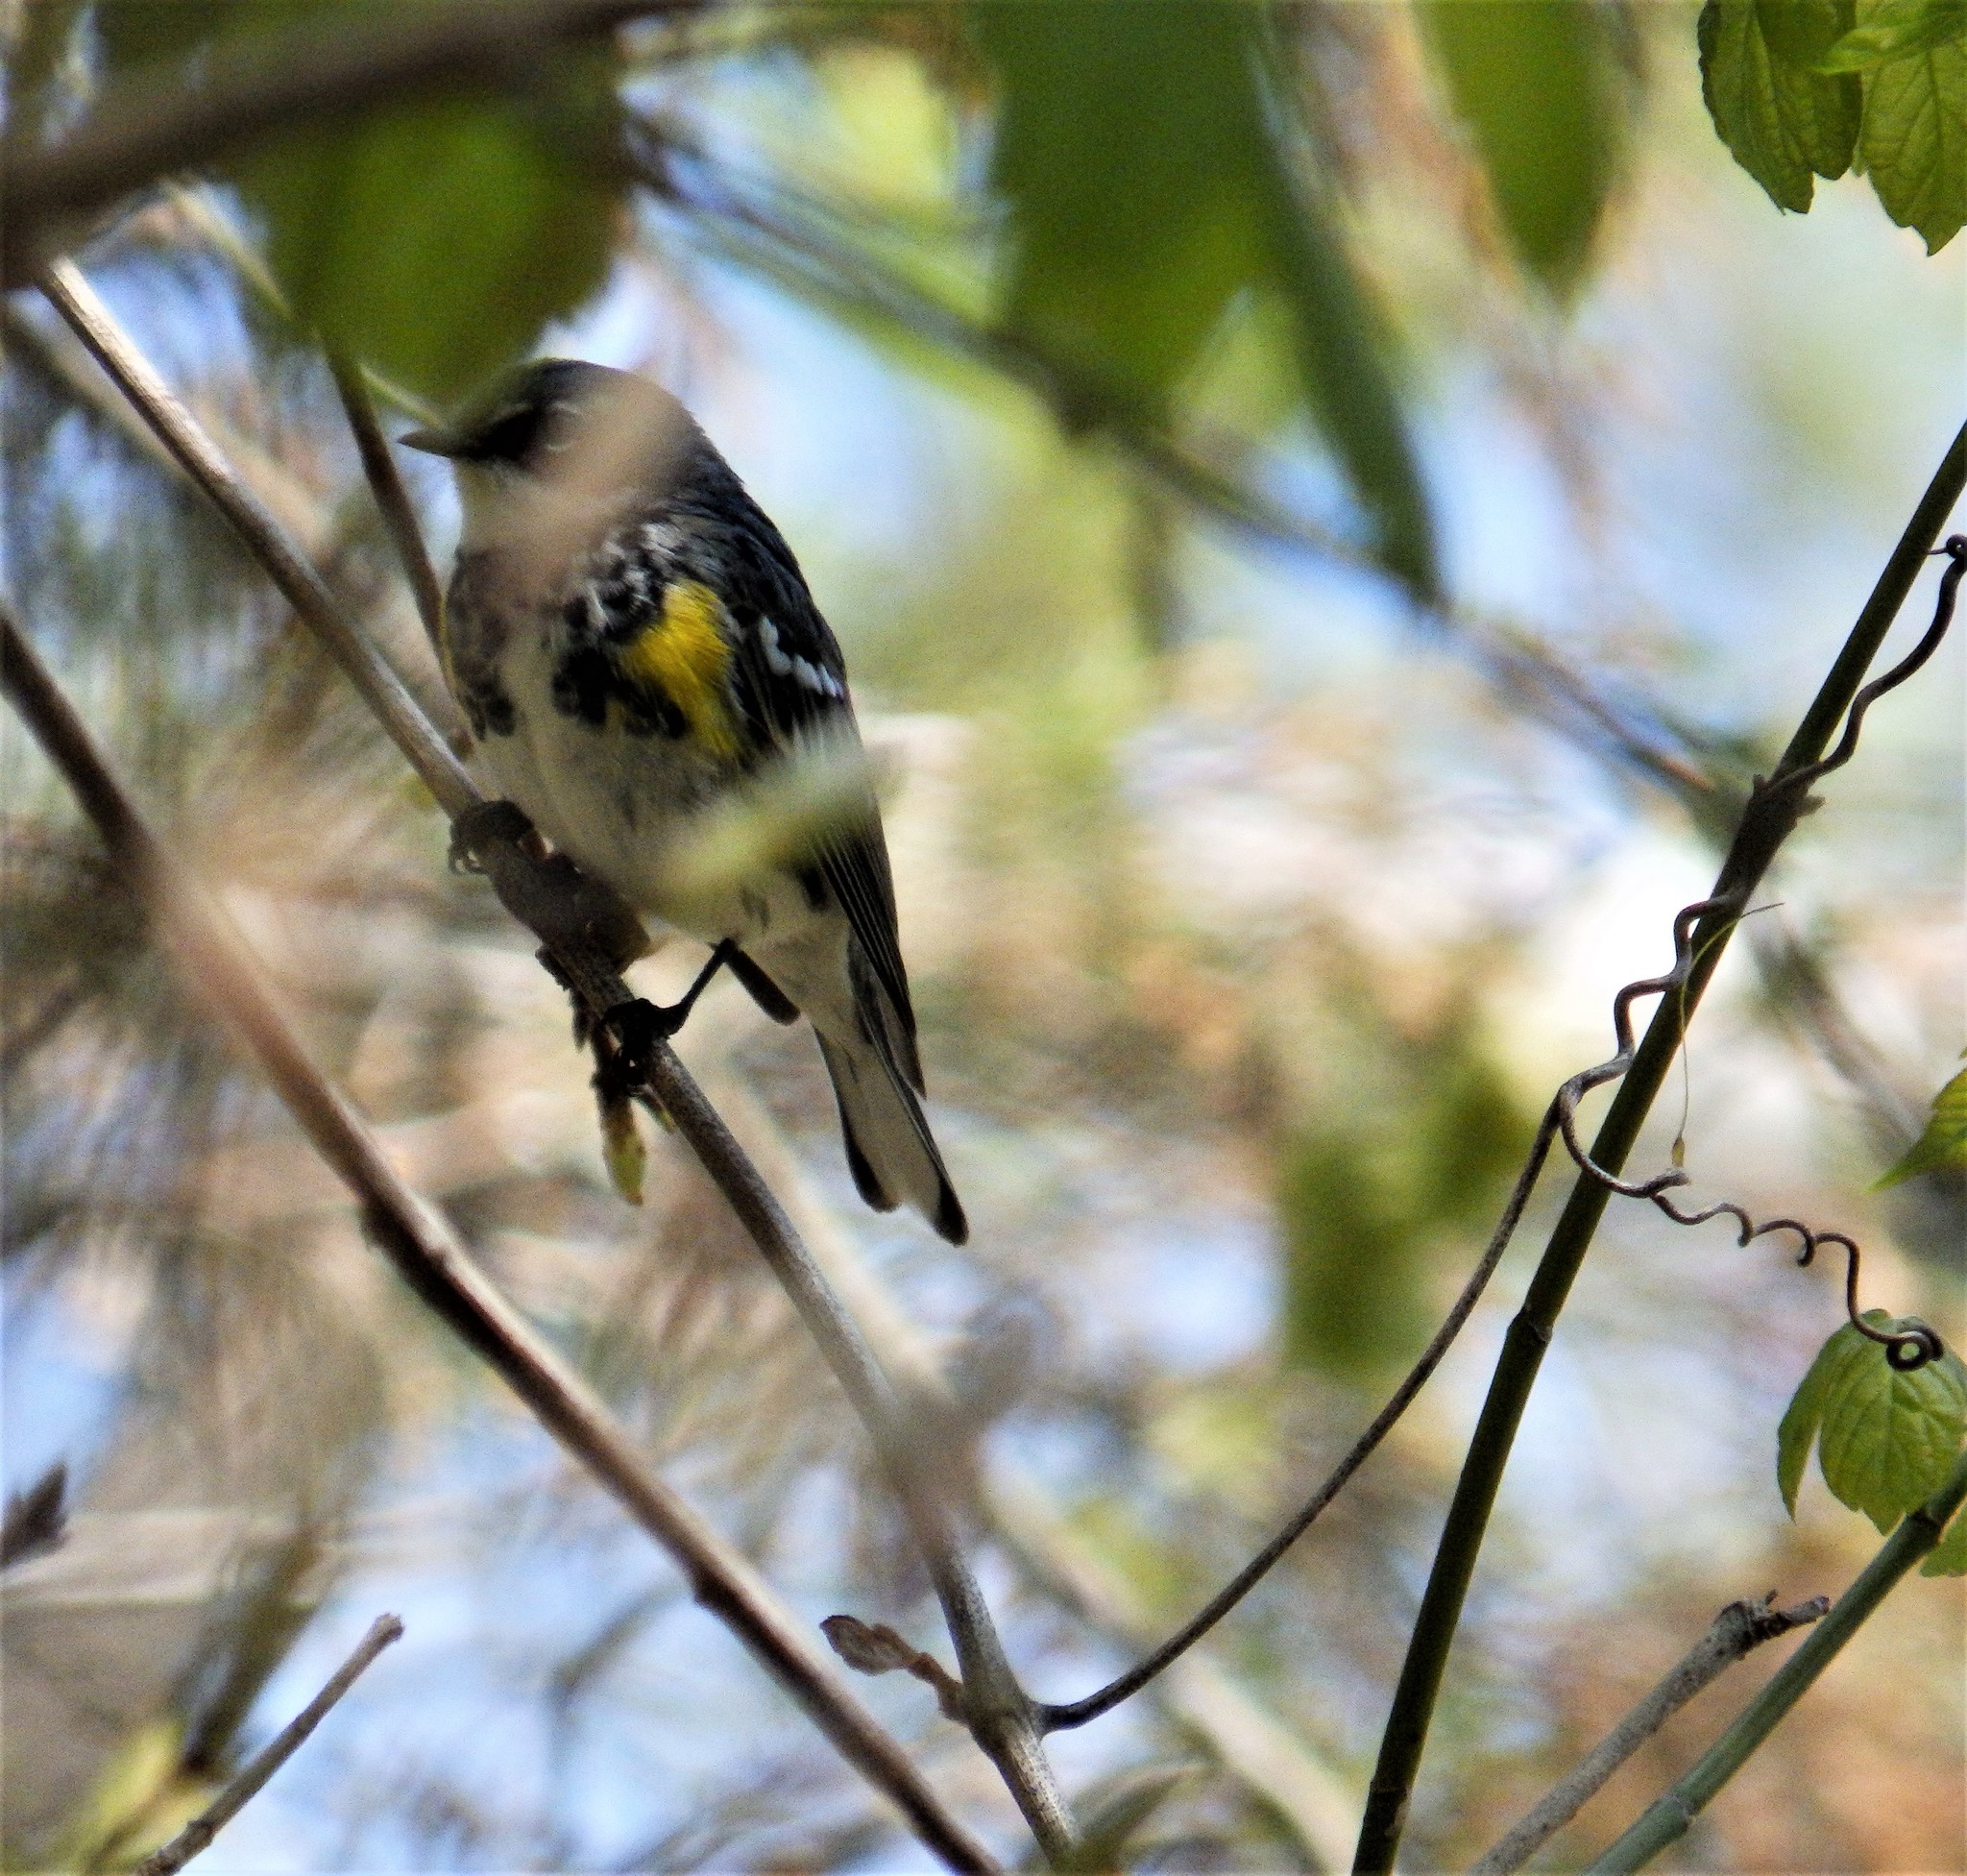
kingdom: Animalia
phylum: Chordata
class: Aves
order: Passeriformes
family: Parulidae
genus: Setophaga
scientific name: Setophaga coronata
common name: Myrtle warbler
